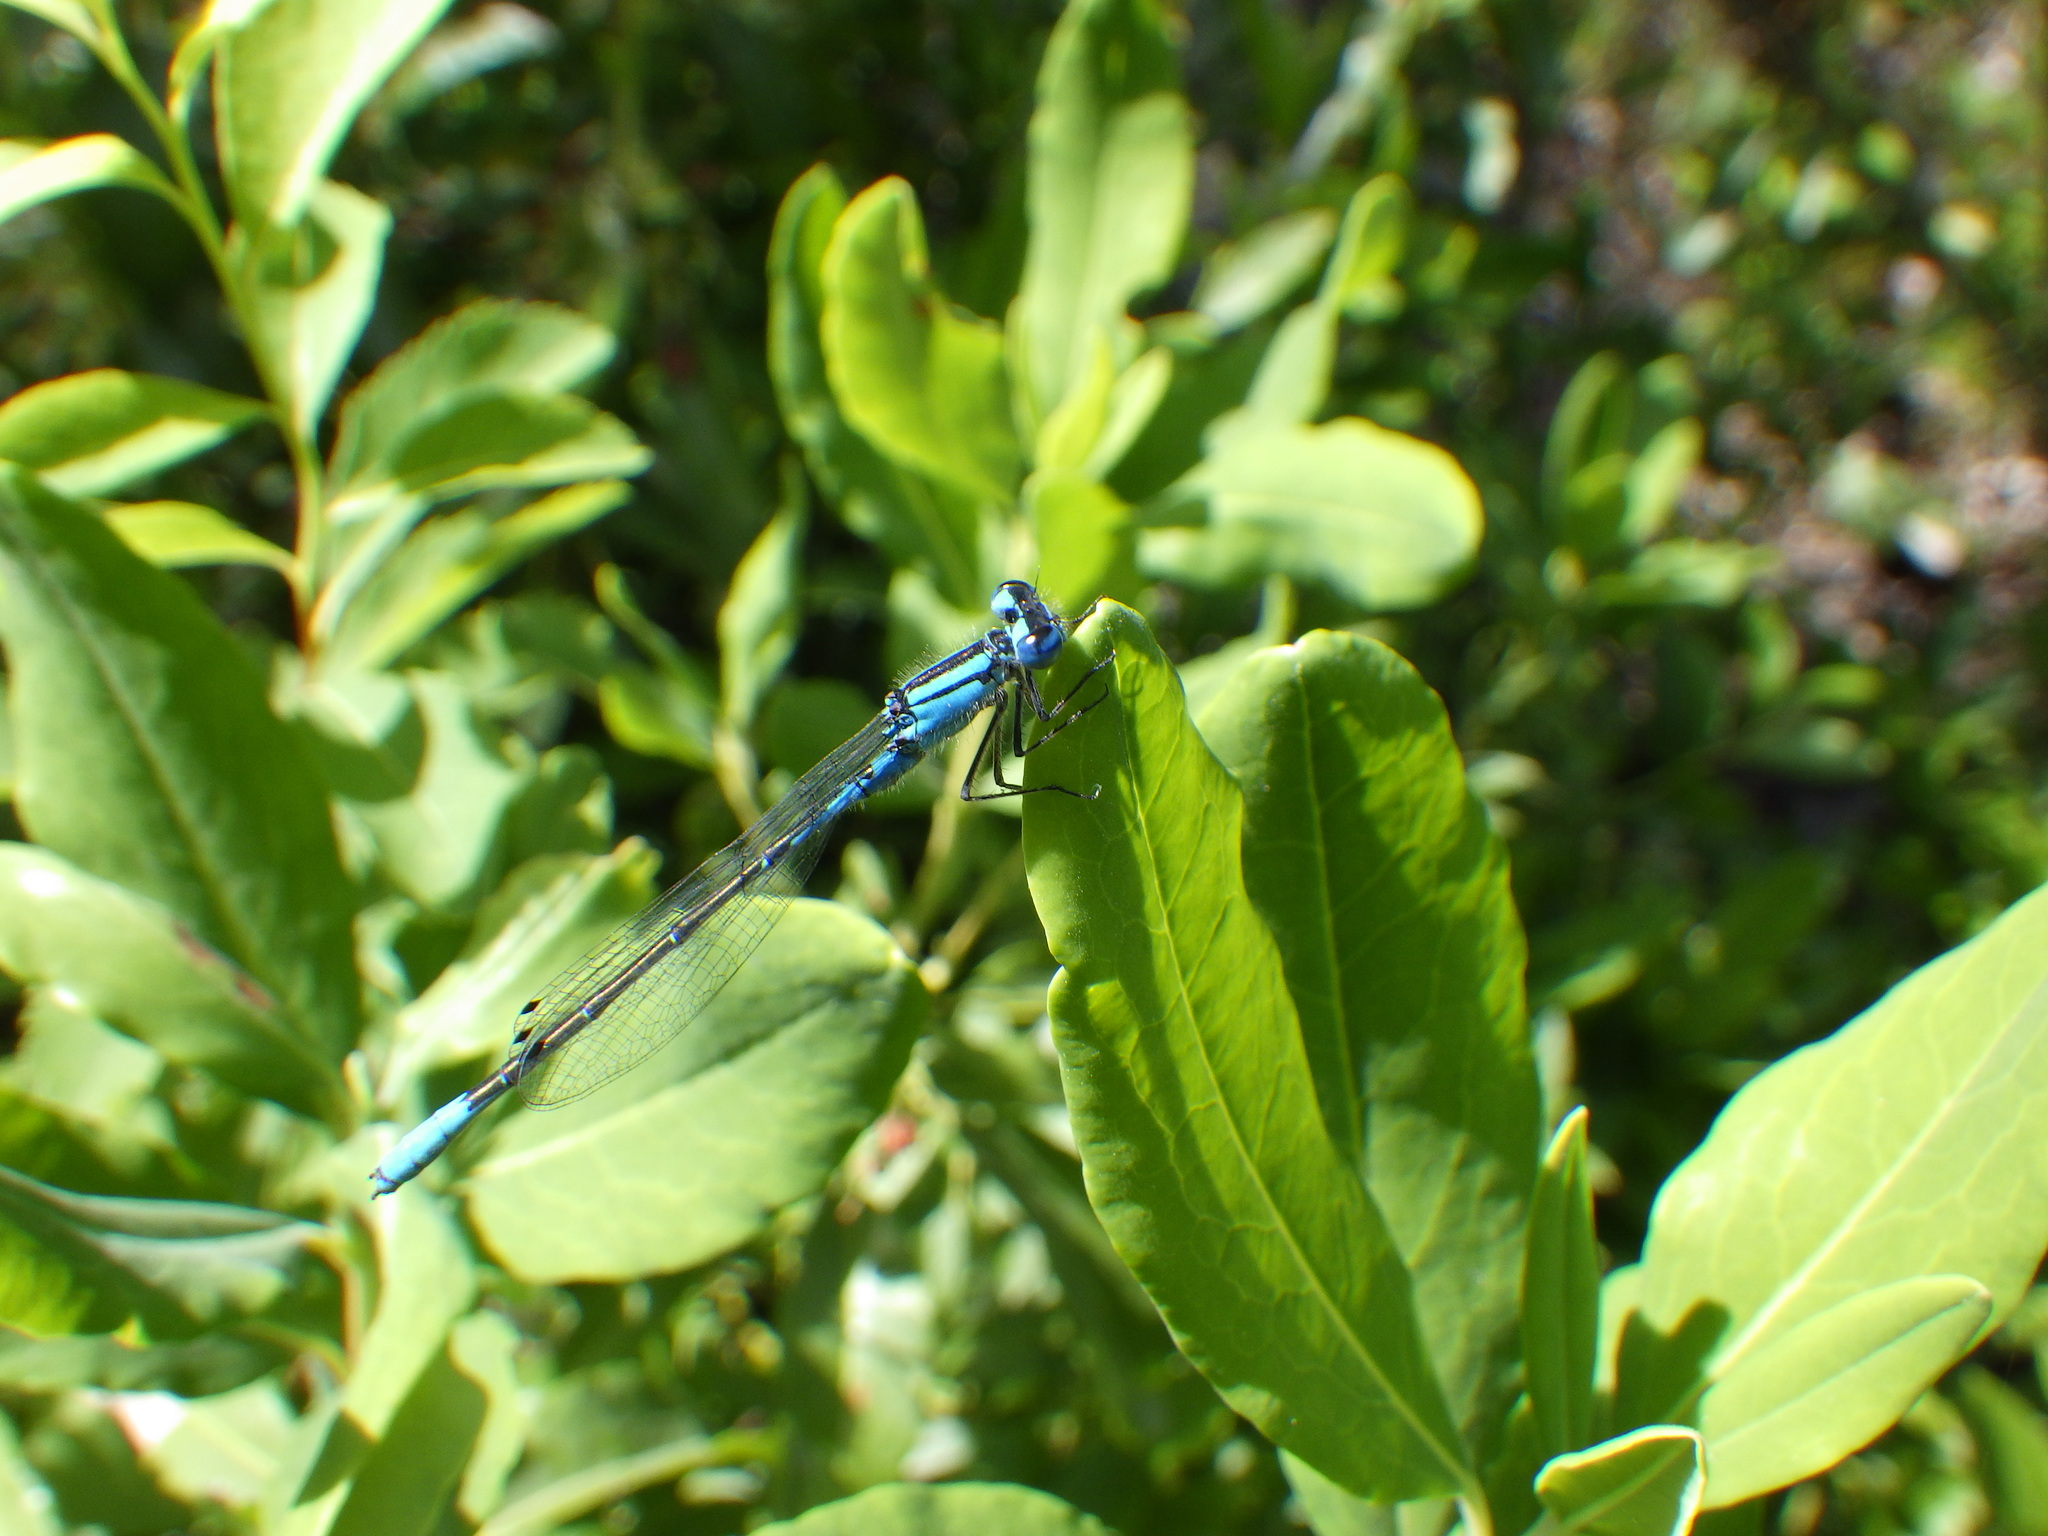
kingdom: Animalia
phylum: Arthropoda
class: Insecta
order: Odonata
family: Coenagrionidae
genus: Enallagma
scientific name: Enallagma aspersum
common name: Azure bluet
